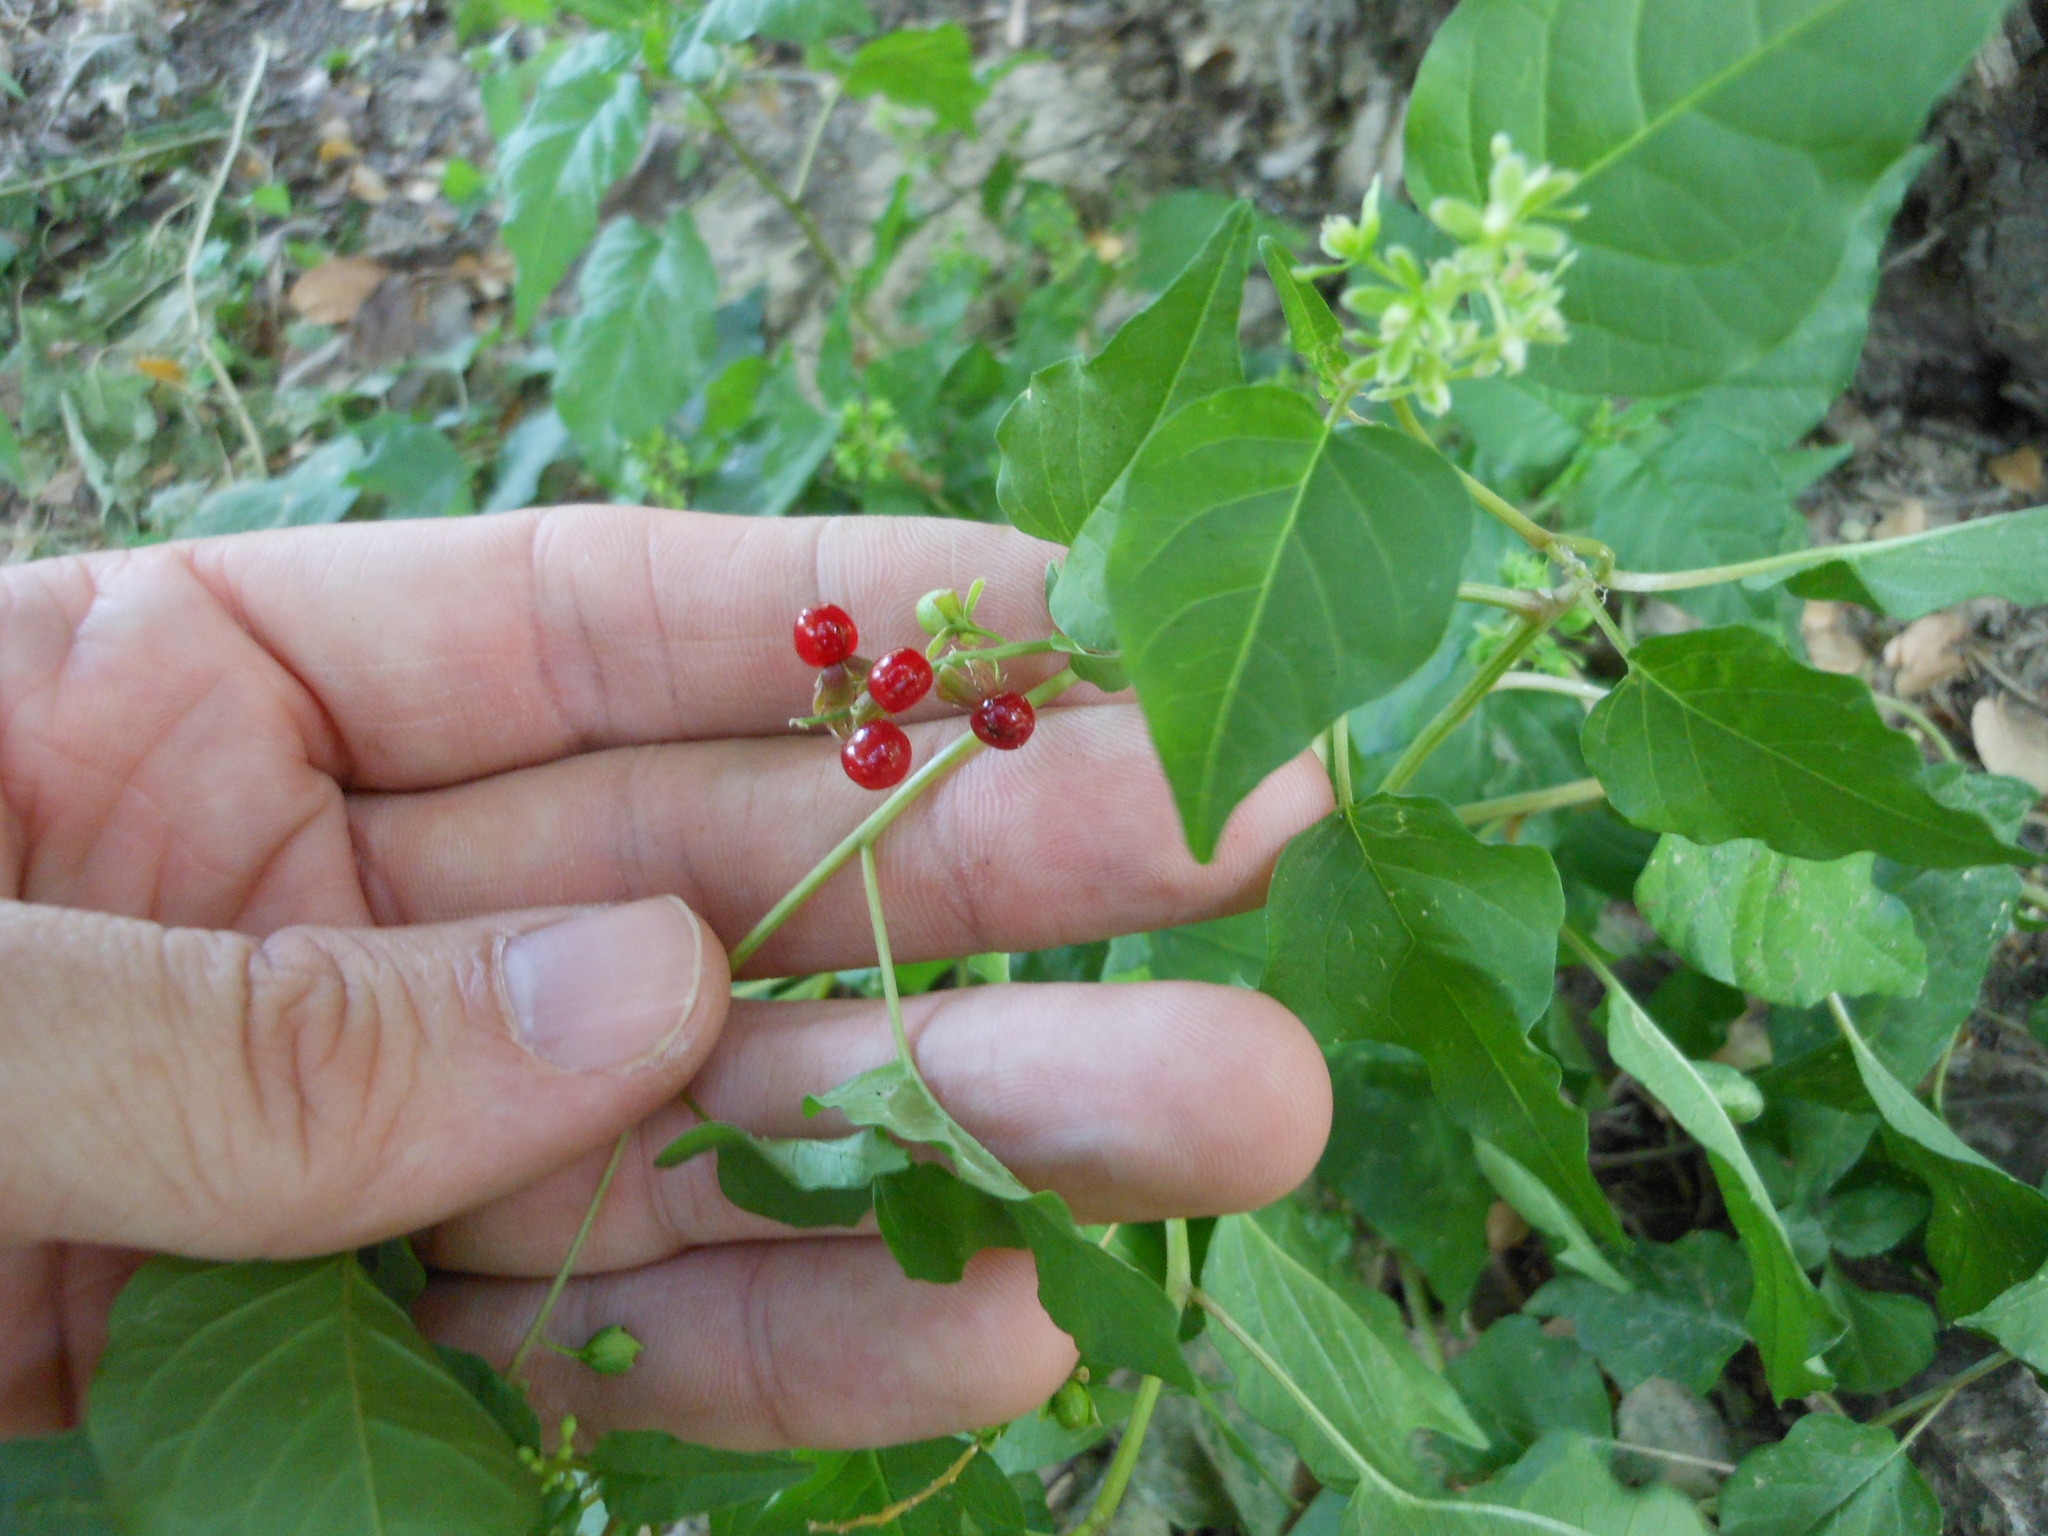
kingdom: Plantae
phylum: Tracheophyta
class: Magnoliopsida
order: Caryophyllales
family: Phytolaccaceae
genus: Rivina
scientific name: Rivina humilis
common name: Rougeplant
